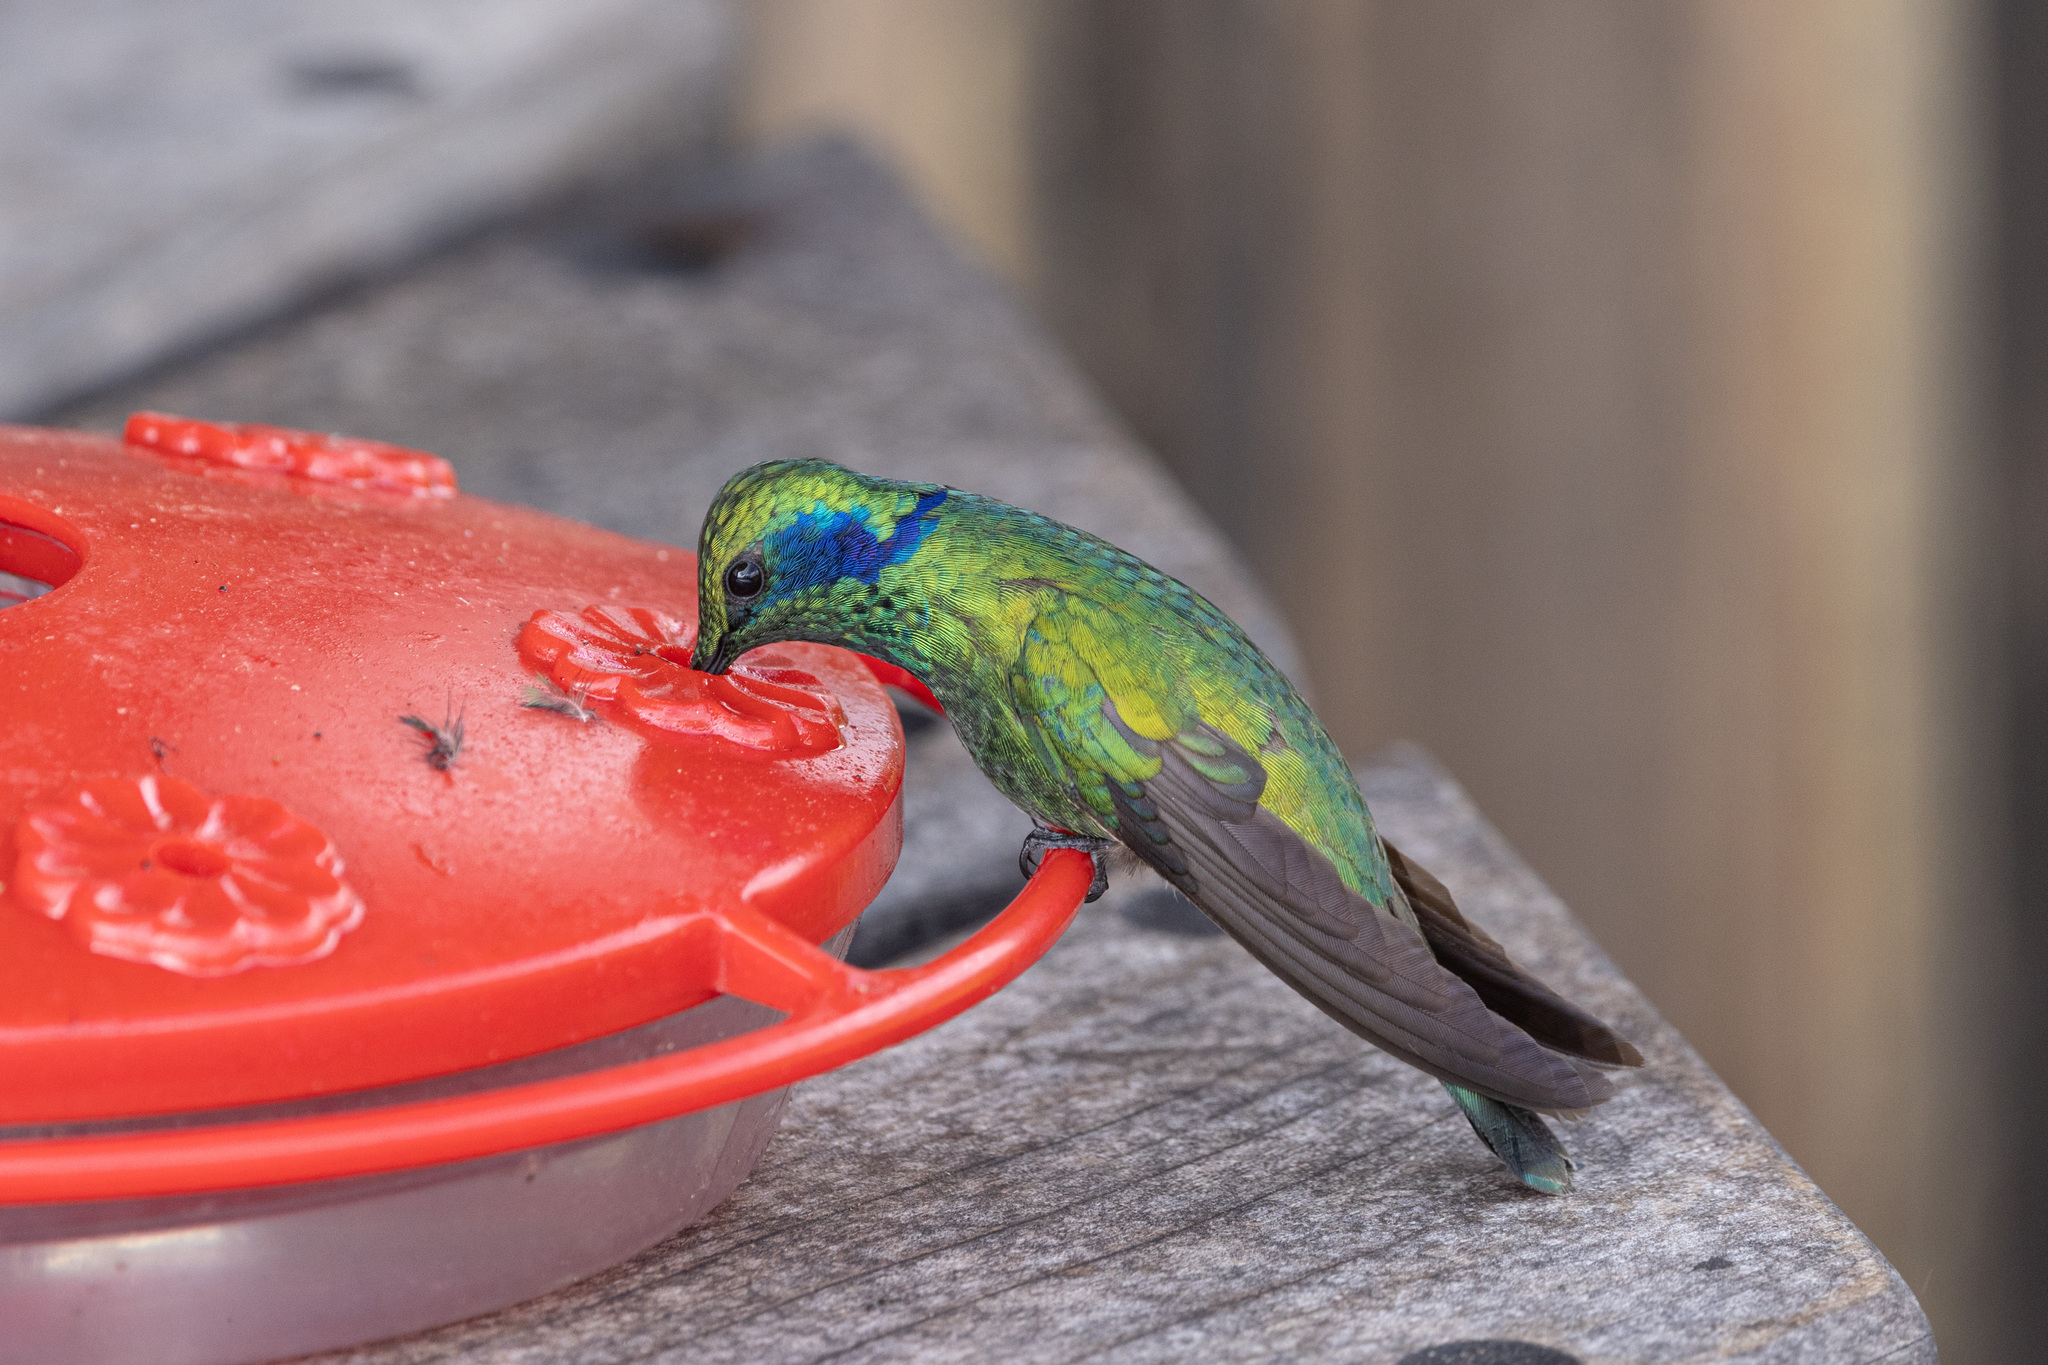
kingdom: Animalia
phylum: Chordata
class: Aves
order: Apodiformes
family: Trochilidae
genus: Colibri
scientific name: Colibri cyanotus
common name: Lesser violetear
